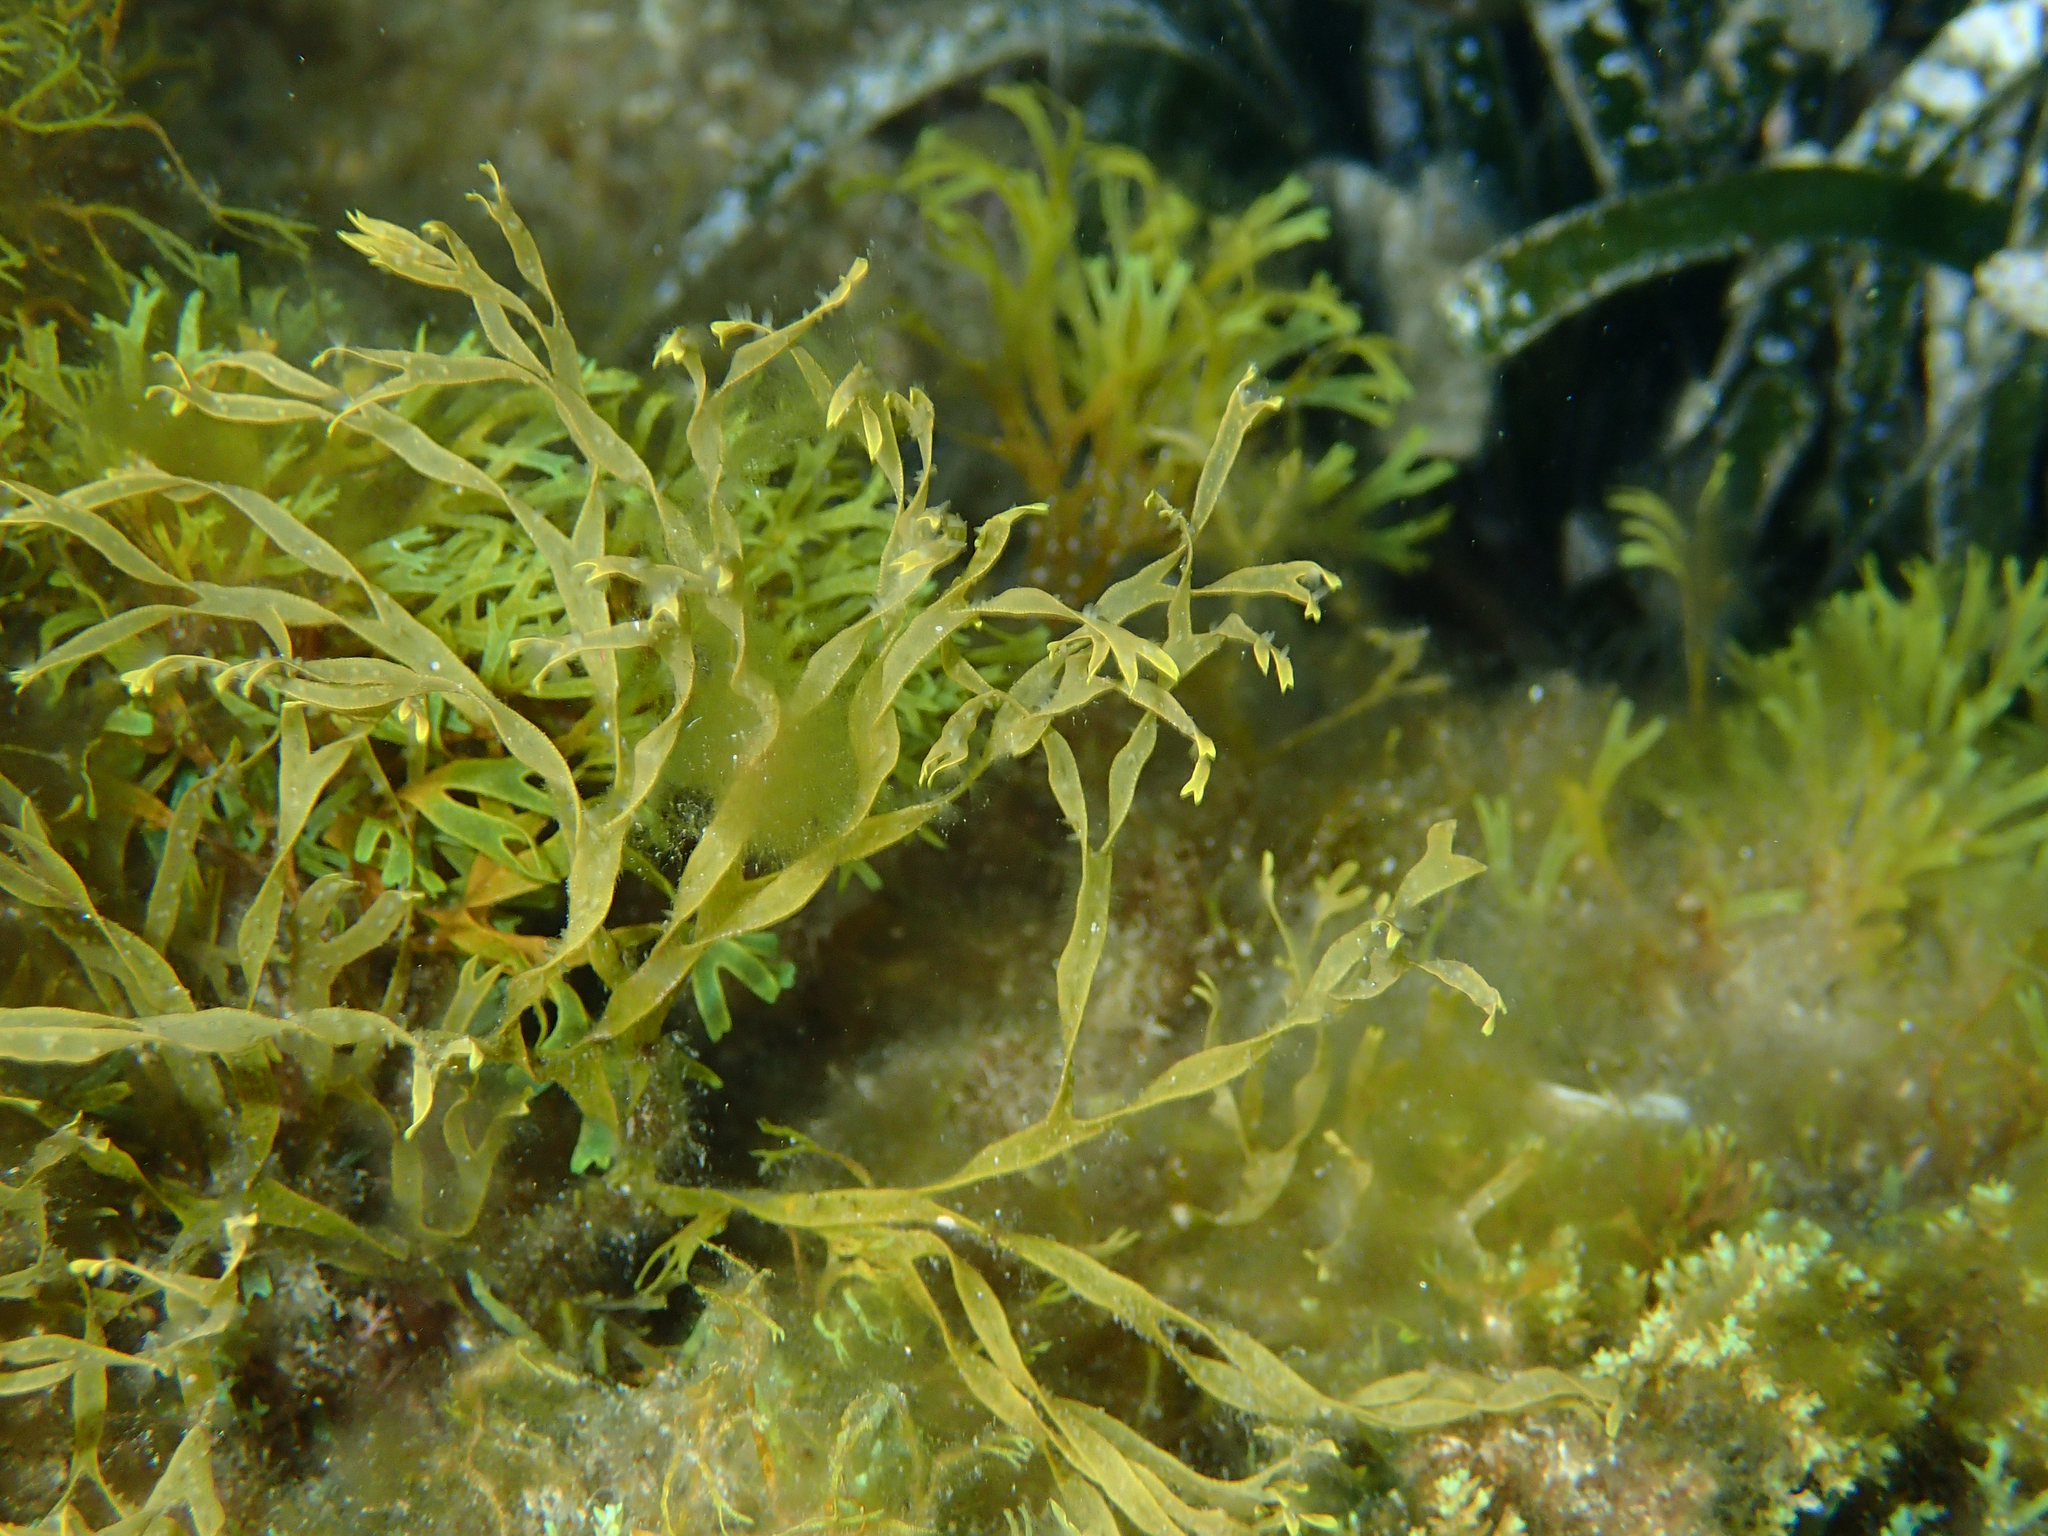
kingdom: Chromista
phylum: Ochrophyta
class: Phaeophyceae
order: Dictyotales
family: Dictyotaceae
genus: Dictyota
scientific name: Dictyota fasciola
